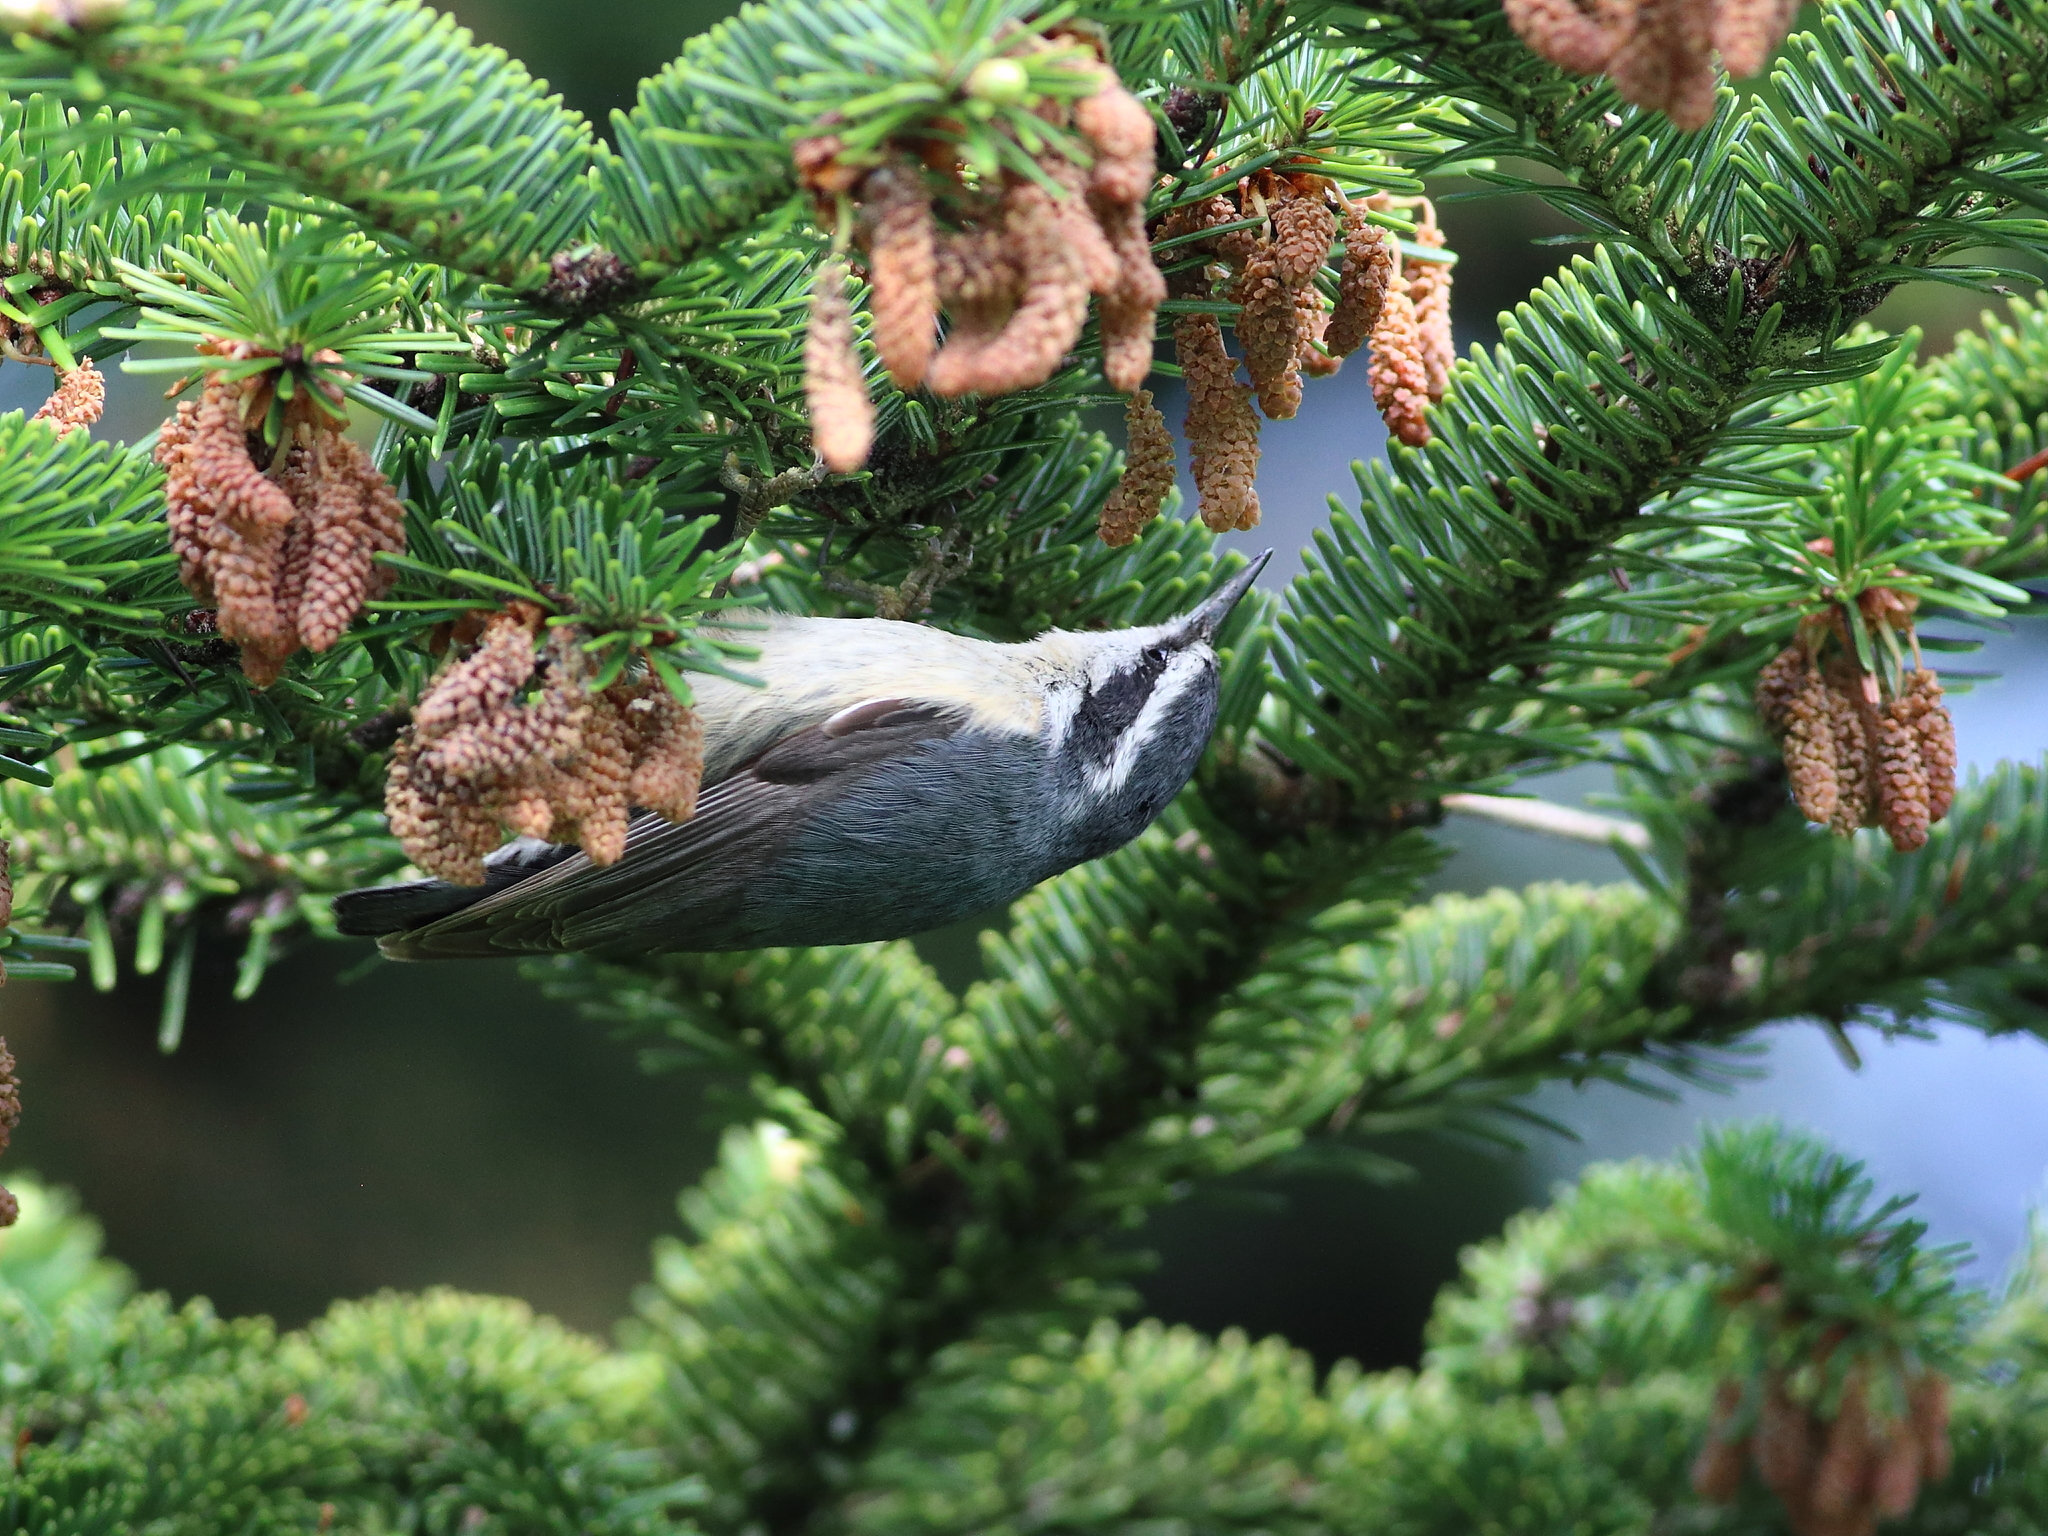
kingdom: Animalia
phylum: Chordata
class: Aves
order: Passeriformes
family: Sittidae
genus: Sitta
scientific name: Sitta canadensis
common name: Red-breasted nuthatch
